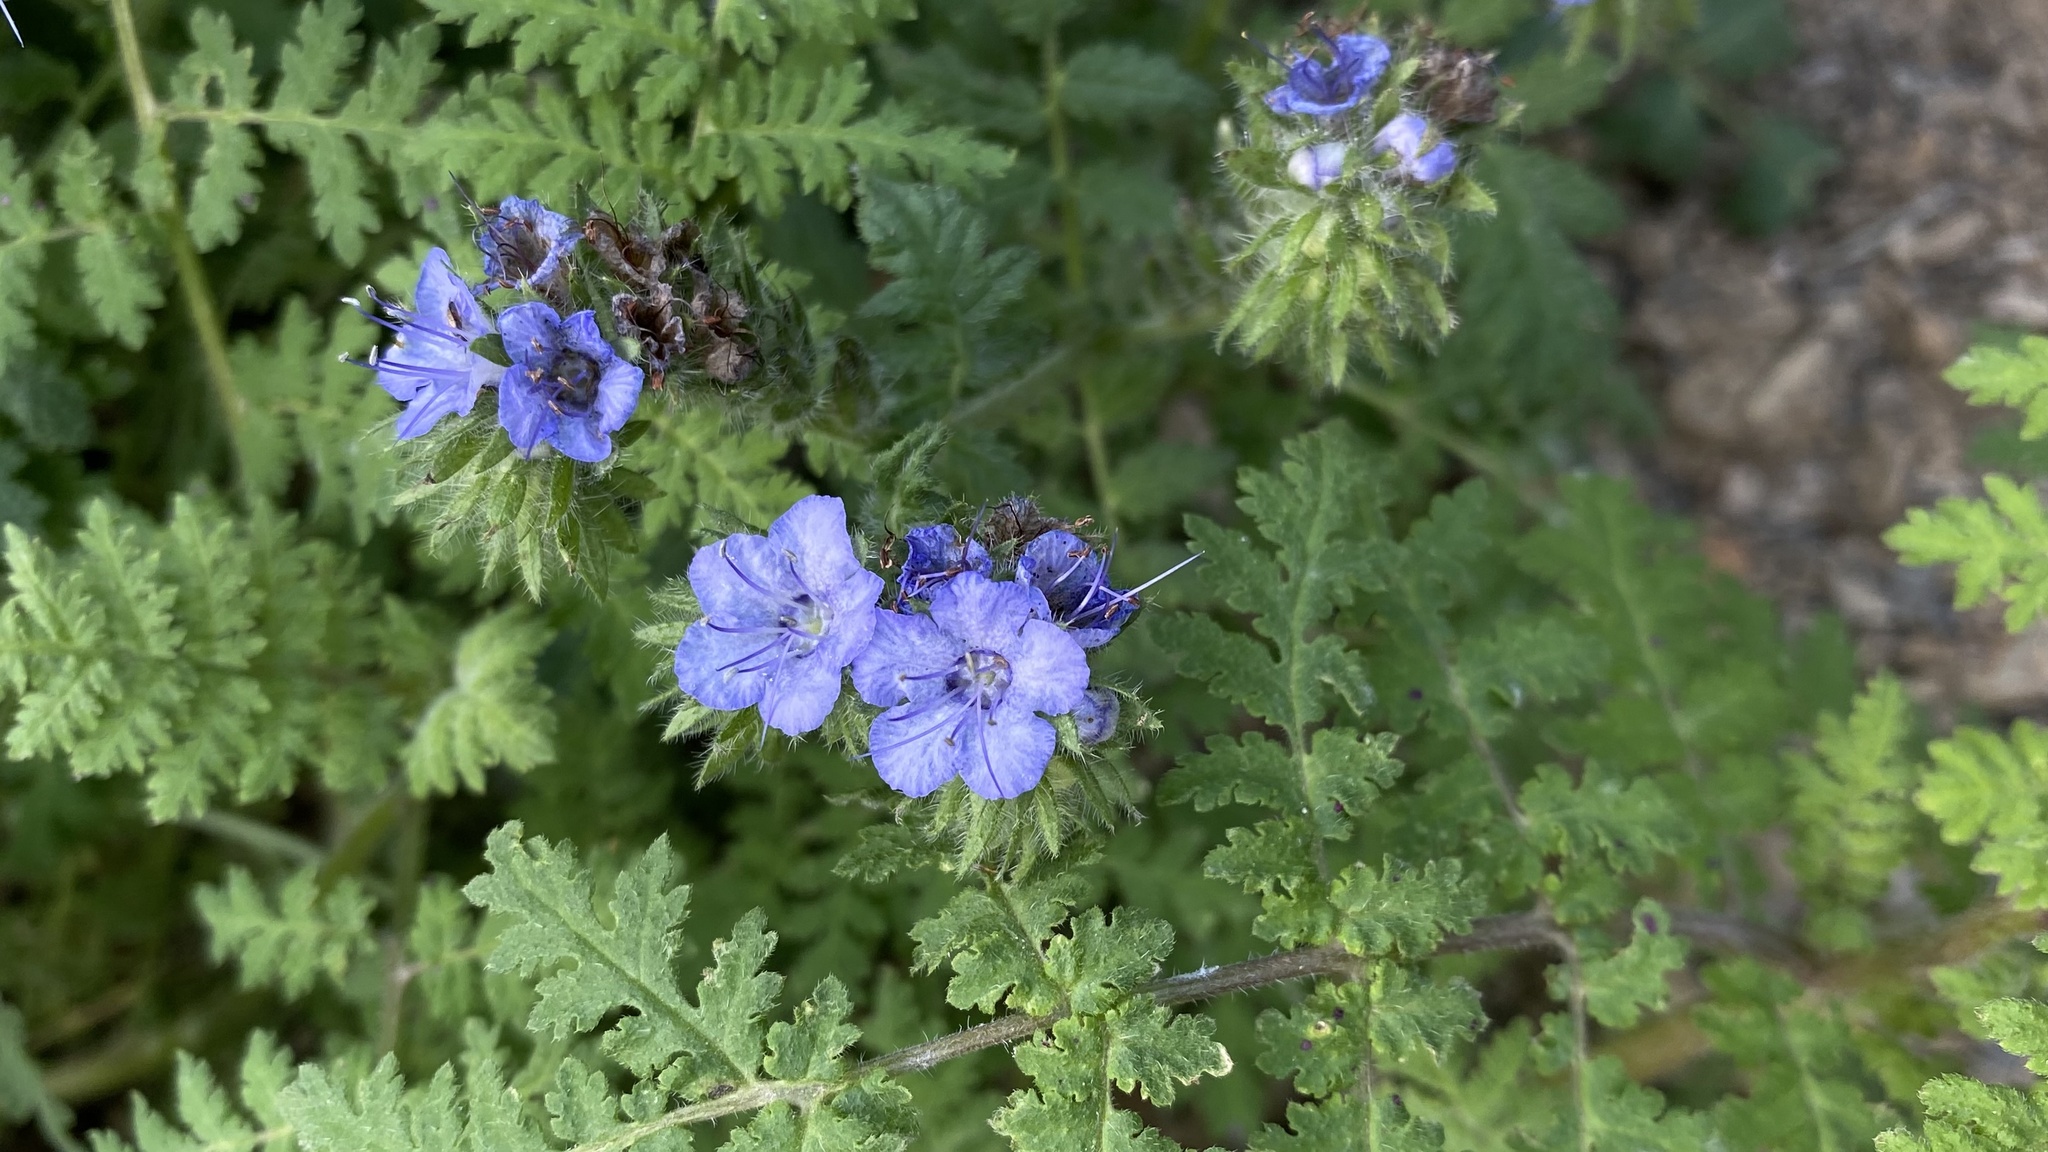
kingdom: Plantae
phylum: Tracheophyta
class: Magnoliopsida
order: Boraginales
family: Hydrophyllaceae
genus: Phacelia
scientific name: Phacelia distans
